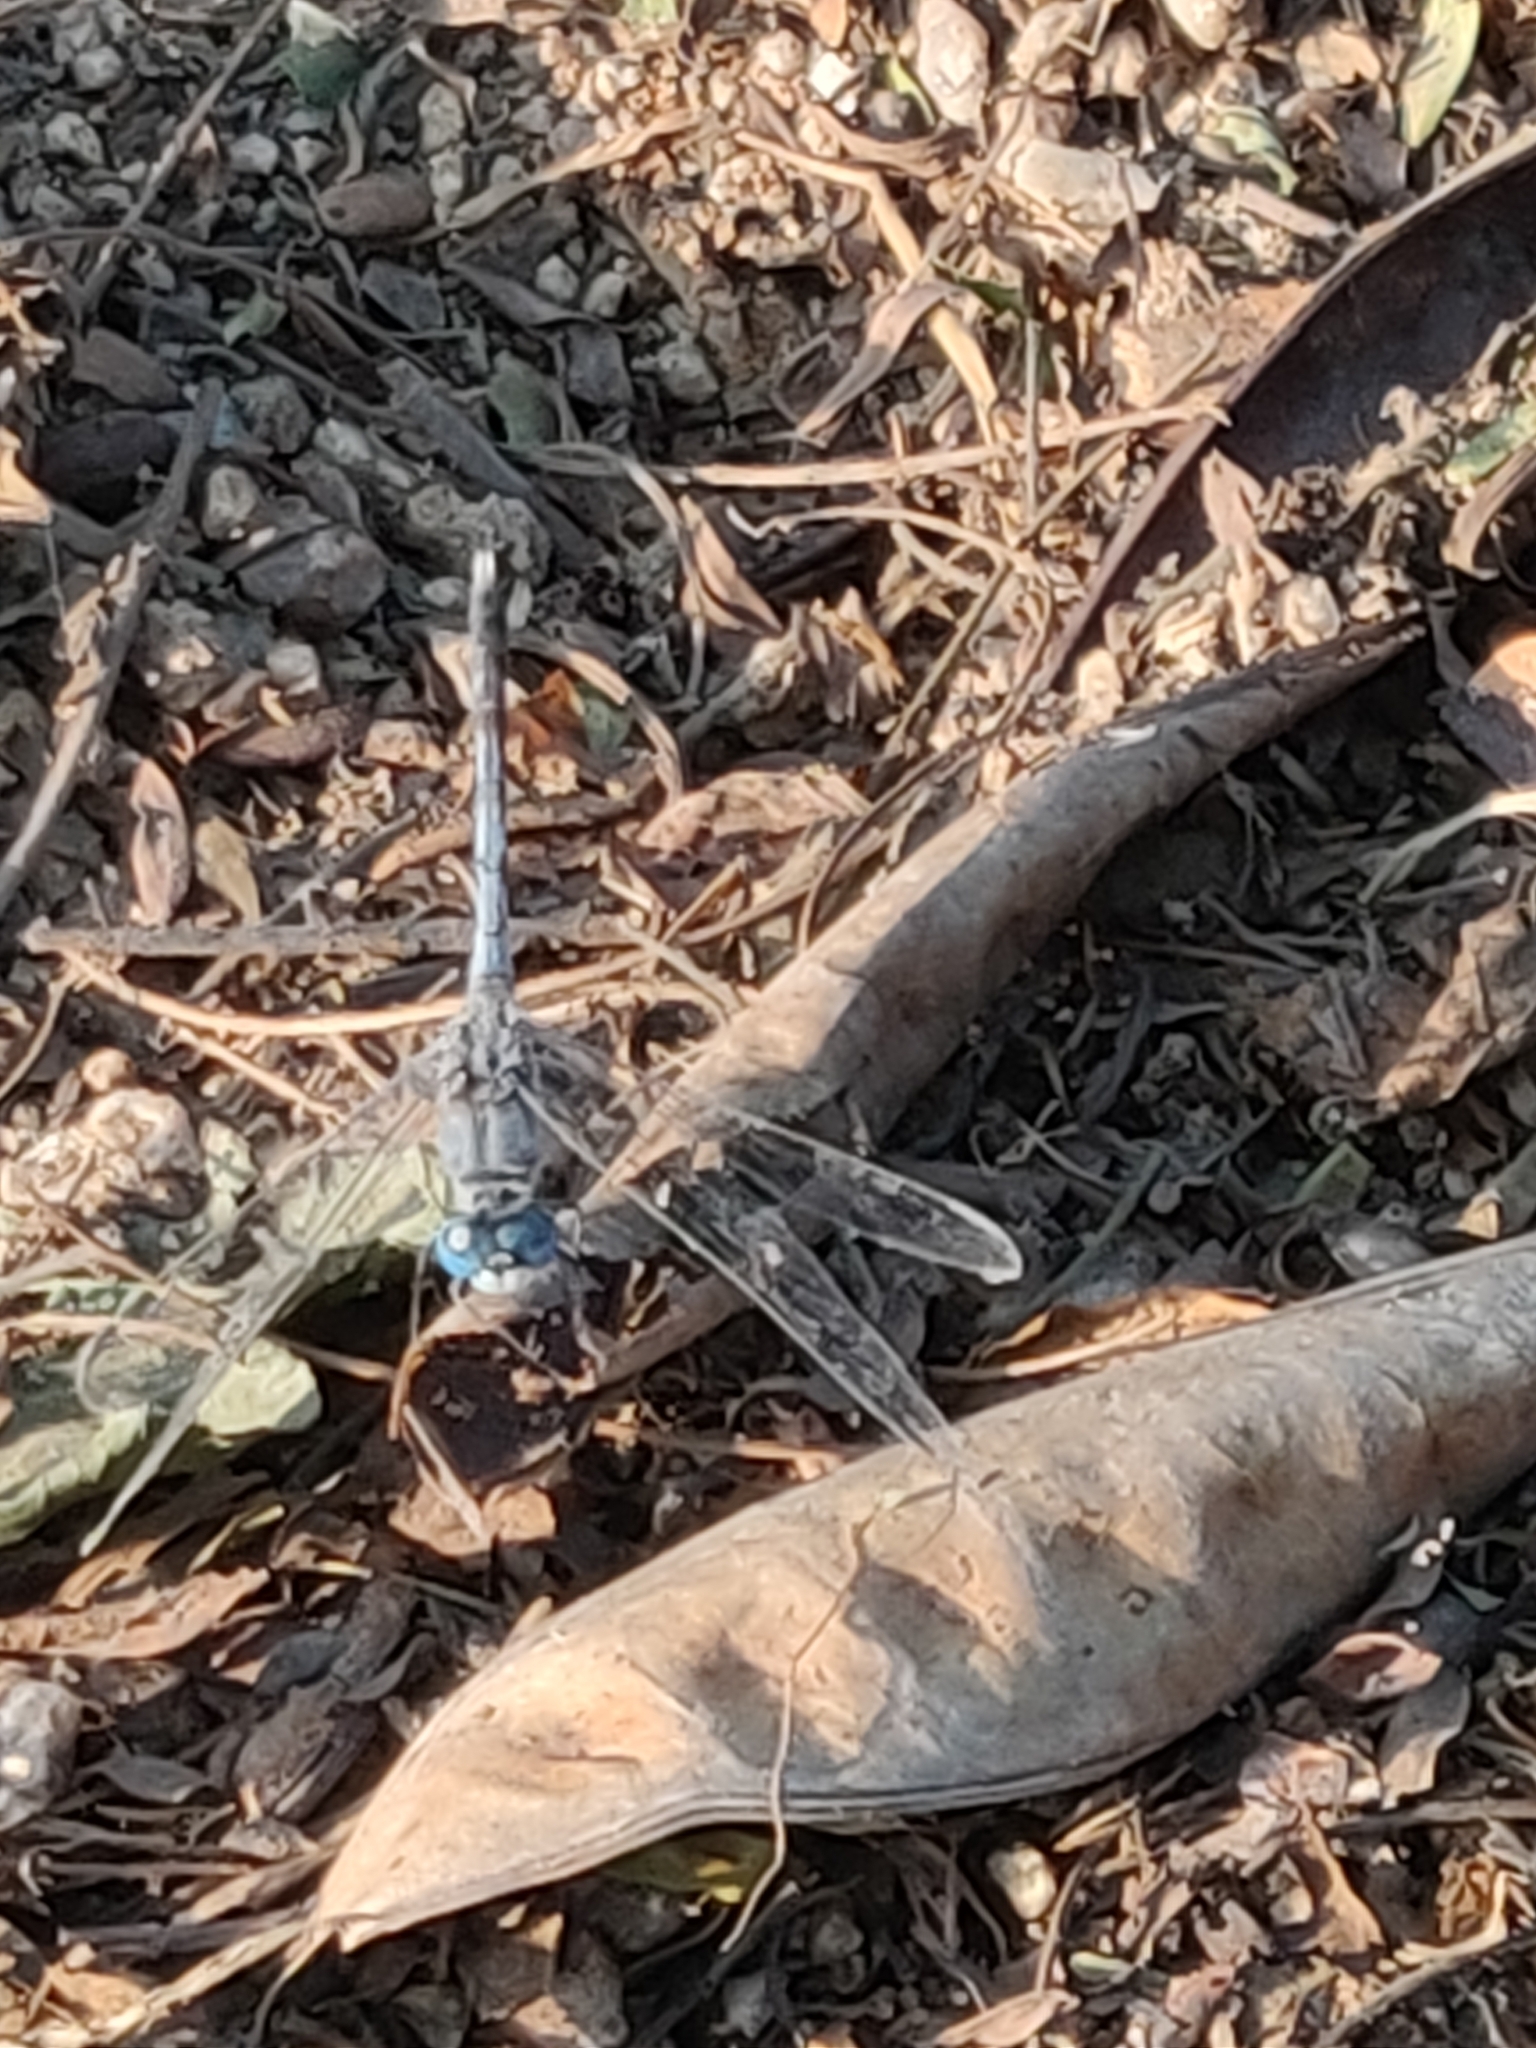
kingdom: Animalia
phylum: Arthropoda
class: Insecta
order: Odonata
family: Libellulidae
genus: Diplacodes
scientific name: Diplacodes trivialis
